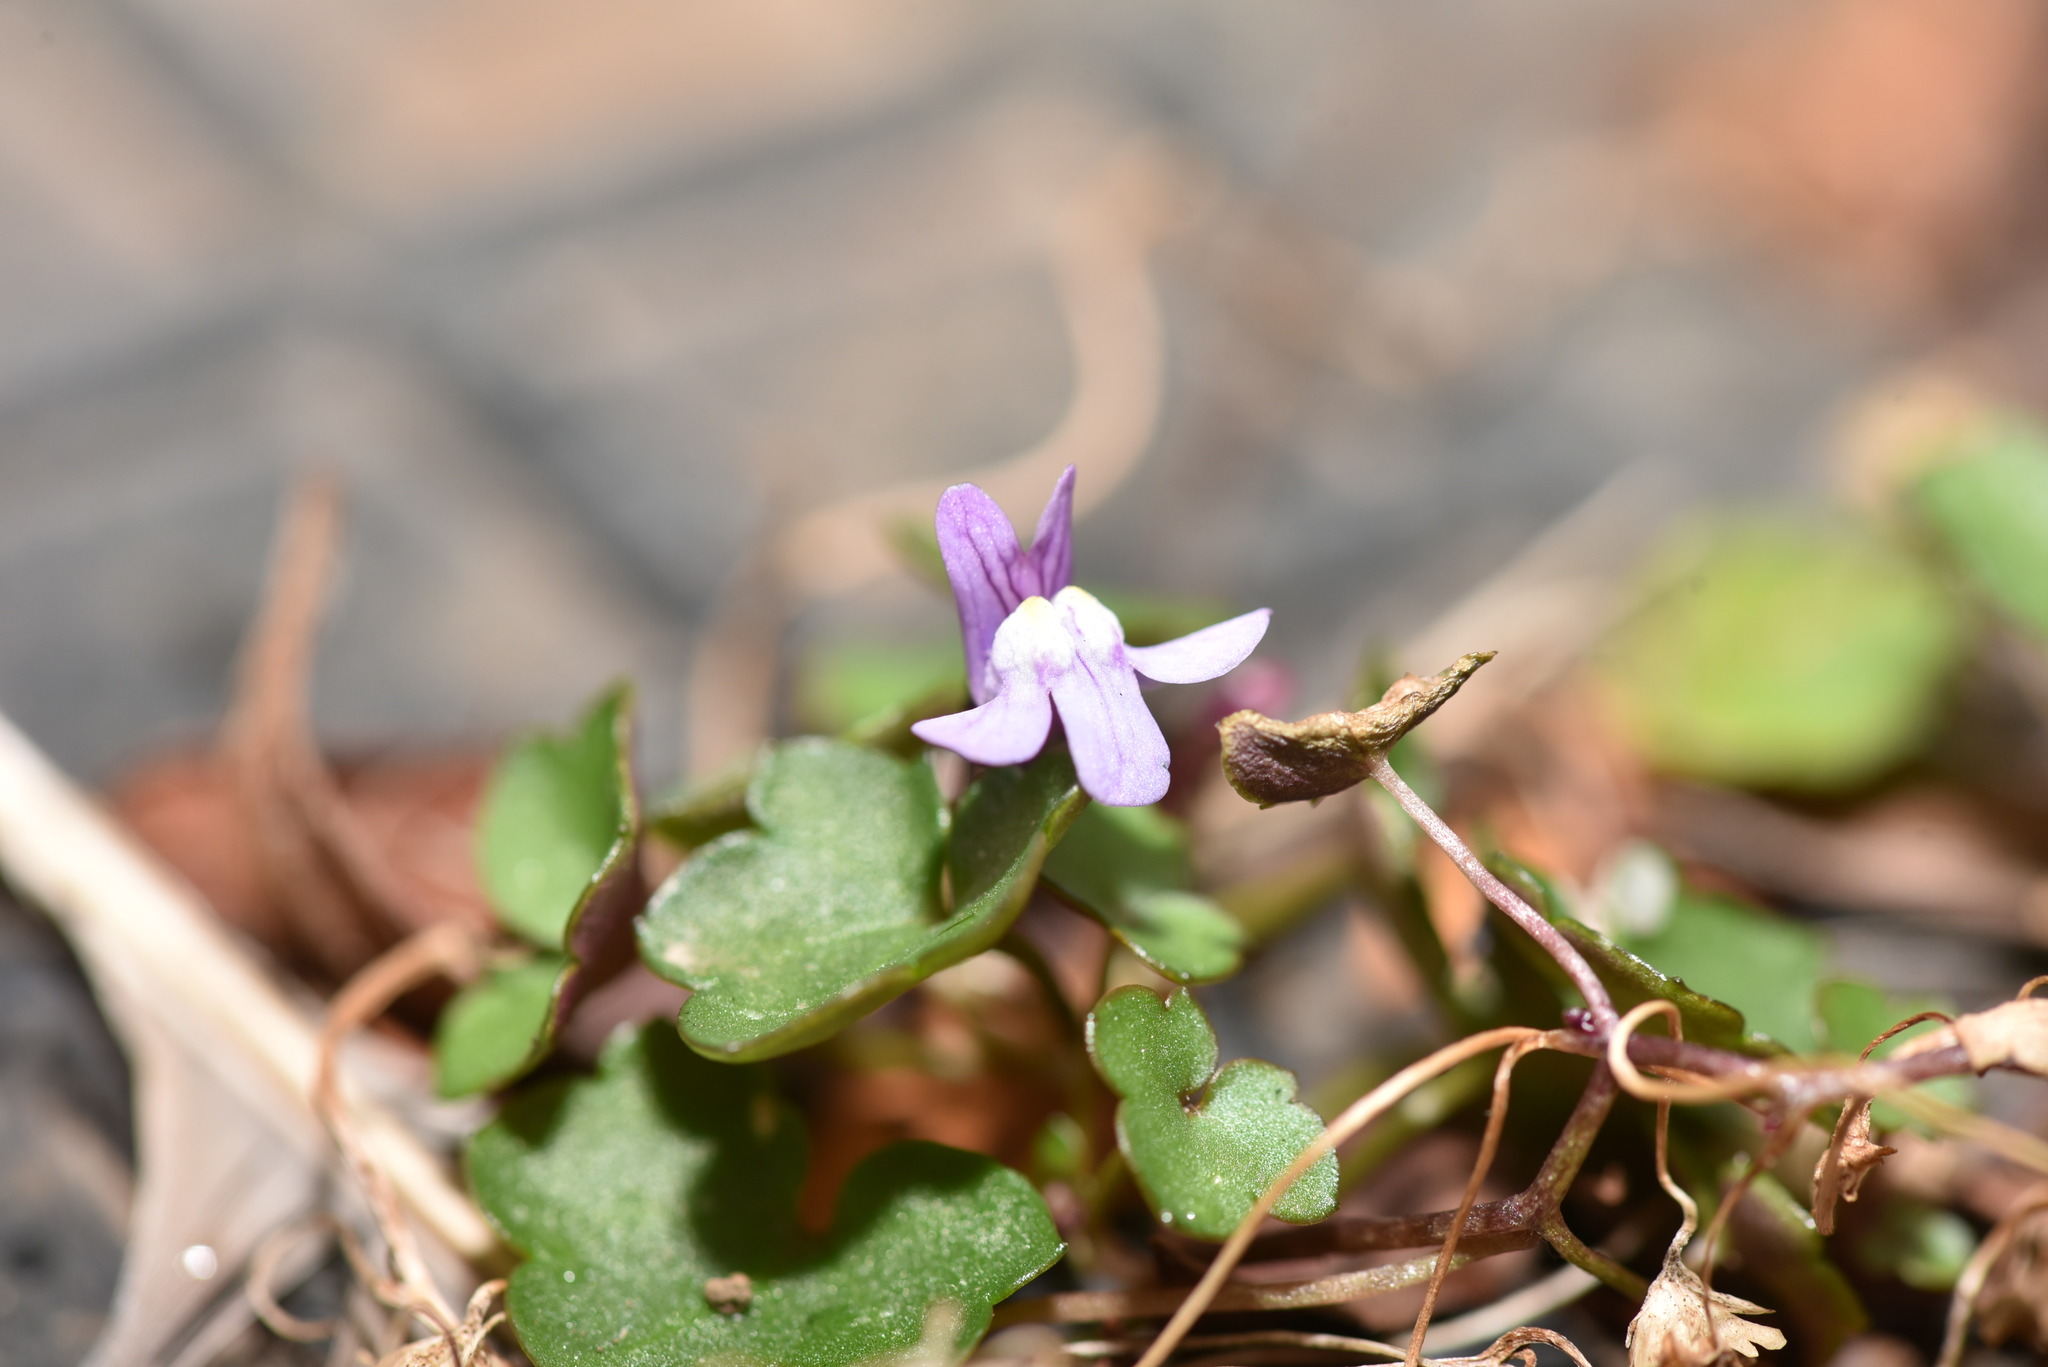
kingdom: Plantae
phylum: Tracheophyta
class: Magnoliopsida
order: Lamiales
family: Plantaginaceae
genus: Cymbalaria
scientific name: Cymbalaria muralis
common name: Ivy-leaved toadflax
